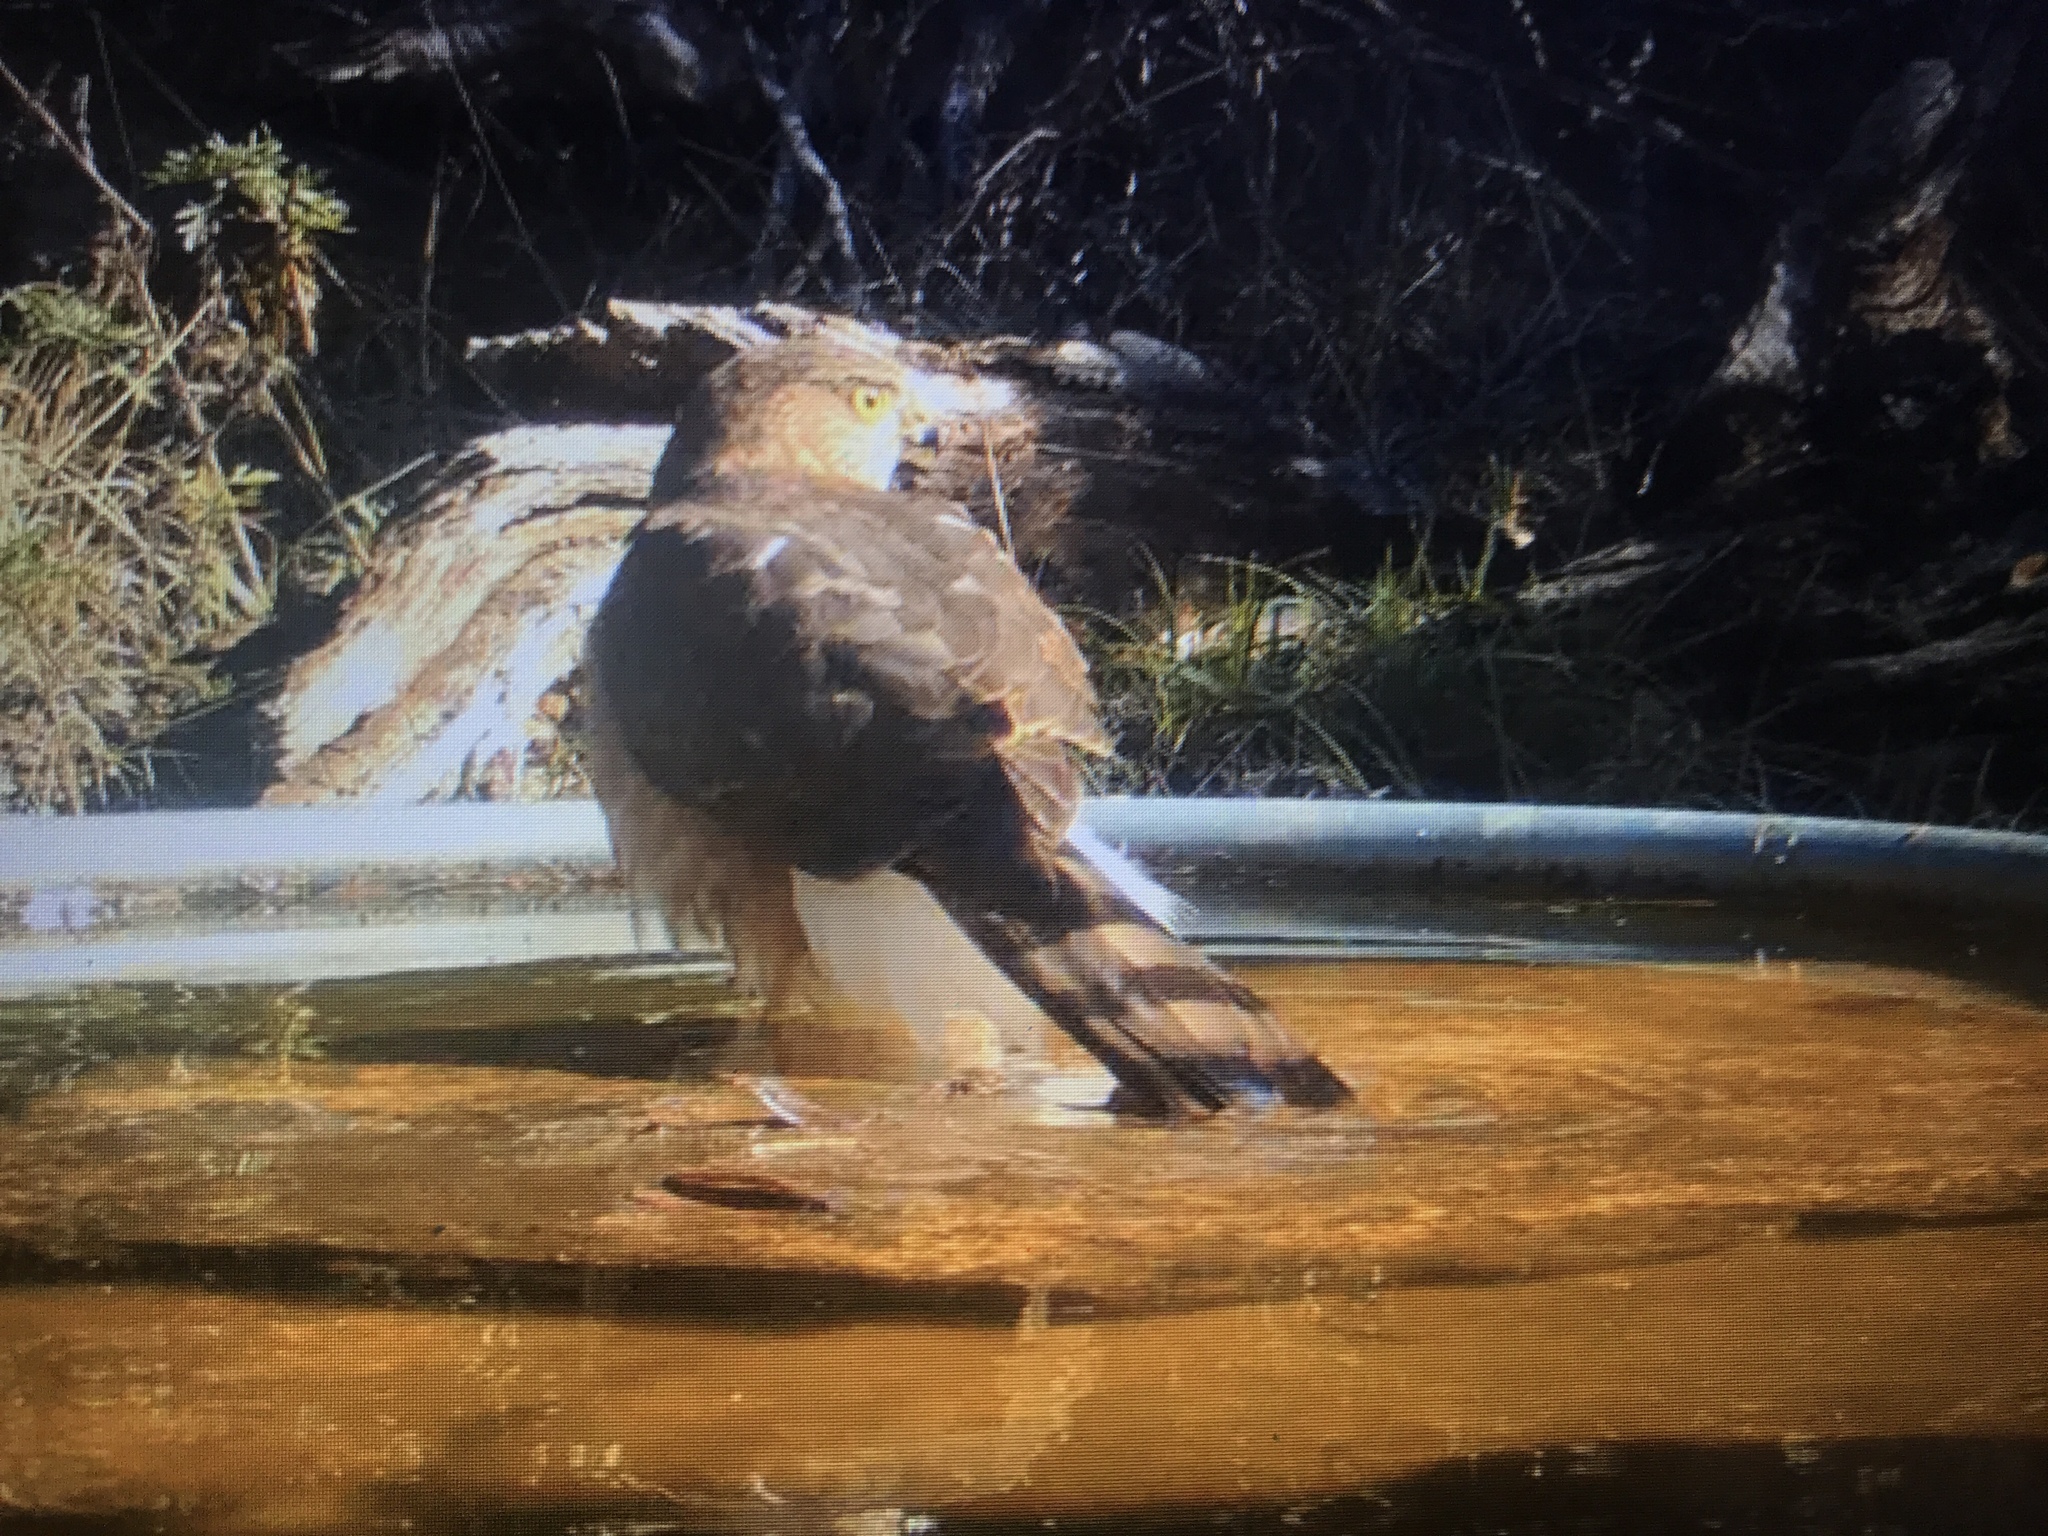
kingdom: Animalia
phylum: Chordata
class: Aves
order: Accipitriformes
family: Accipitridae
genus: Accipiter
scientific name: Accipiter cooperii
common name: Cooper's hawk
